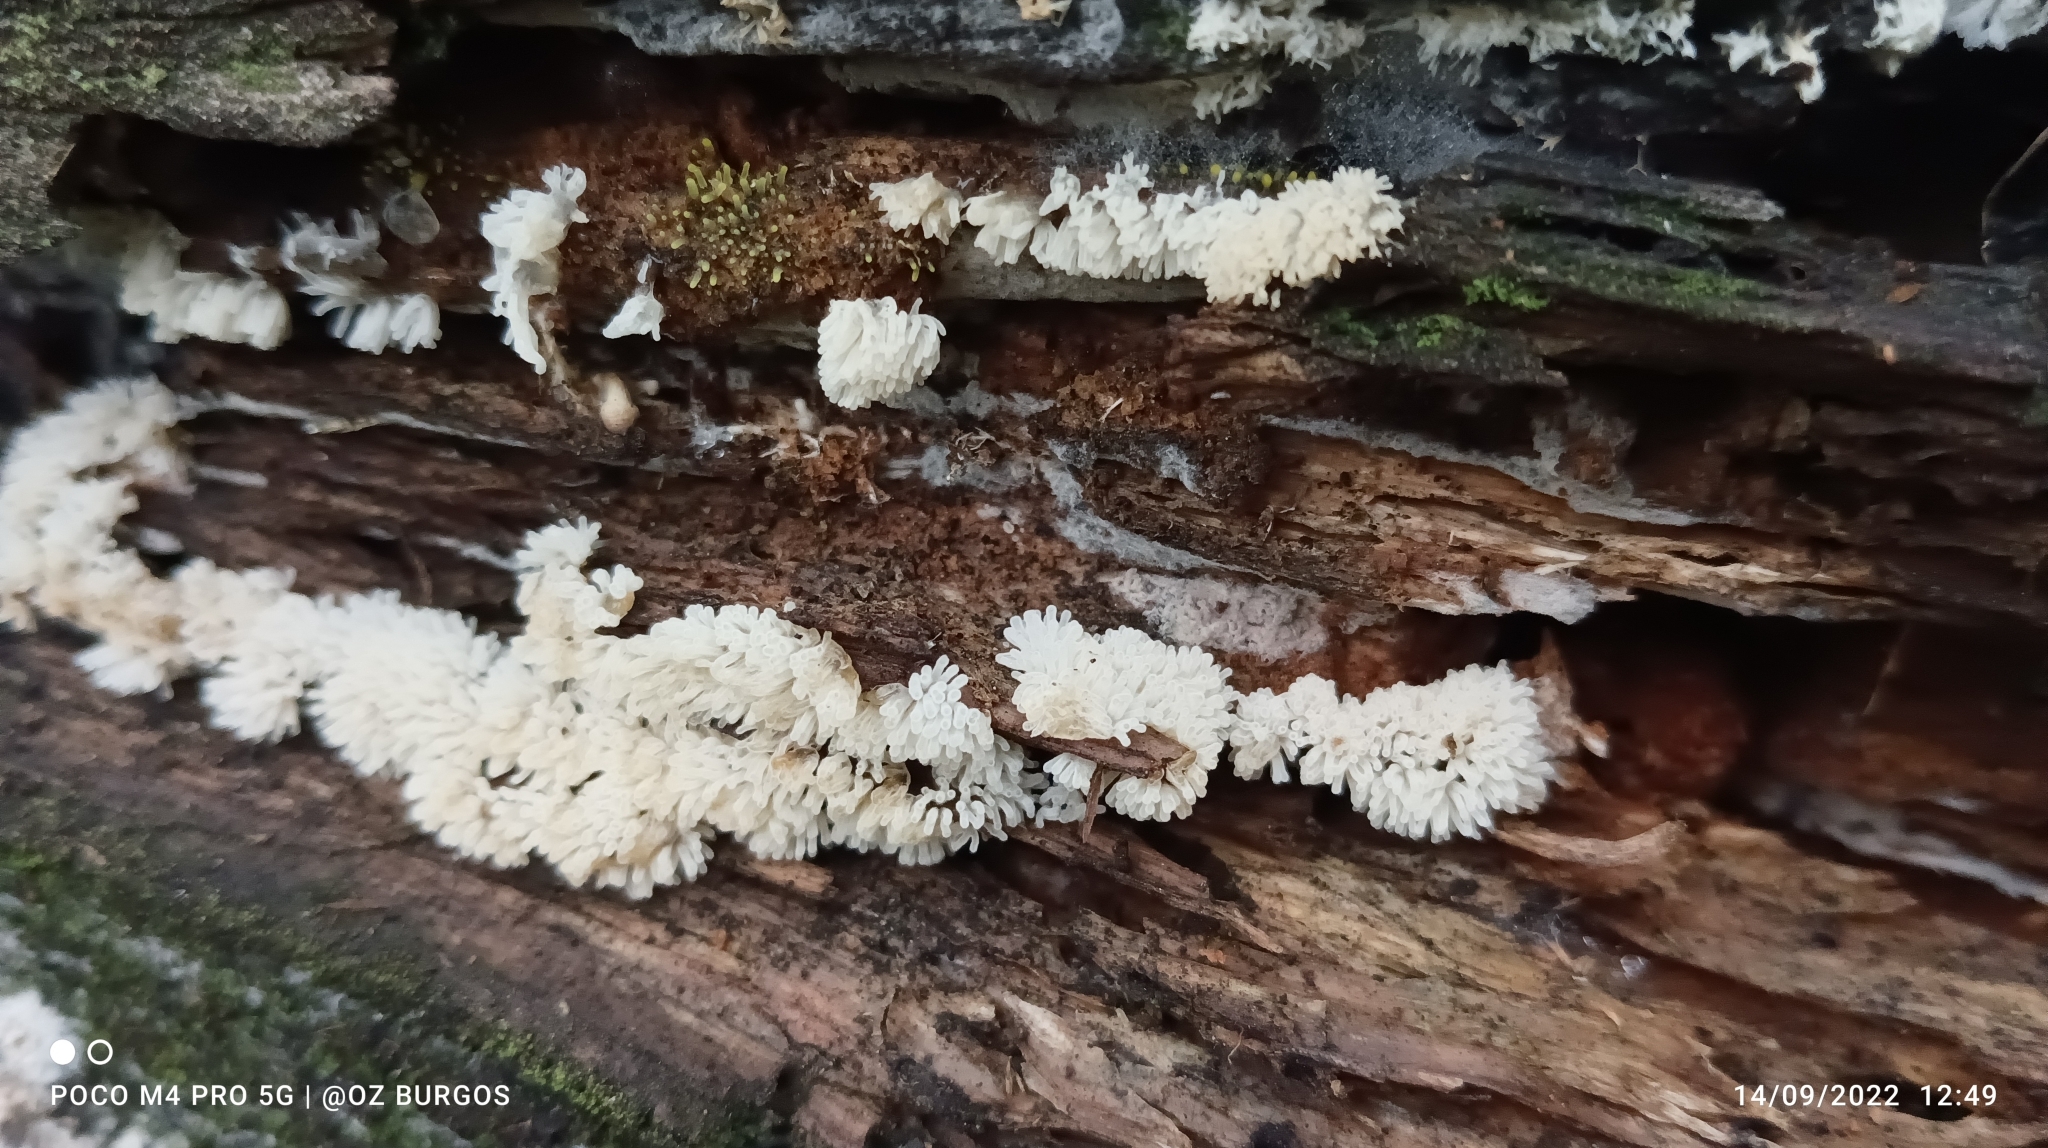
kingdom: Protozoa
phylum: Mycetozoa
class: Protosteliomycetes
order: Ceratiomyxales
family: Ceratiomyxaceae
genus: Ceratiomyxa
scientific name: Ceratiomyxa fruticulosa
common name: Honeycomb coral slime mold
